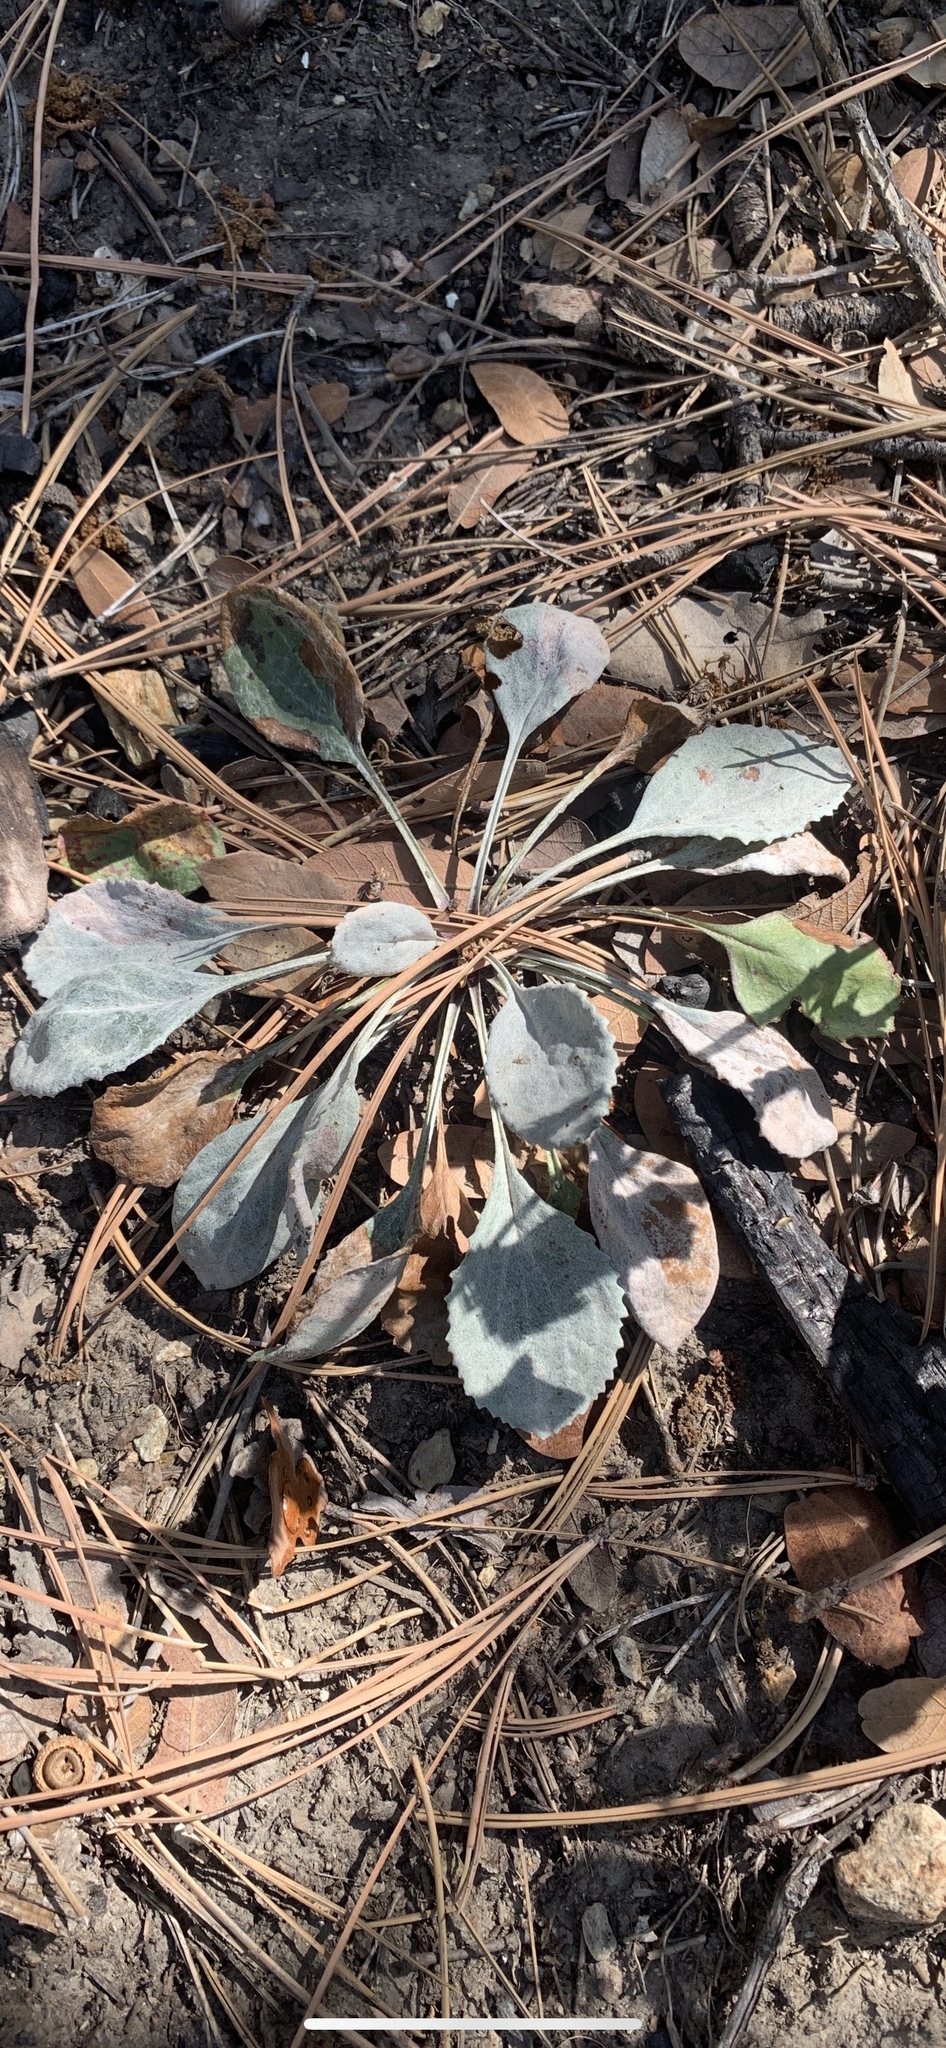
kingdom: Plantae
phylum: Tracheophyta
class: Magnoliopsida
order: Asterales
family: Asteraceae
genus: Packera
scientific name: Packera neomexicana
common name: New mexico butterweed
